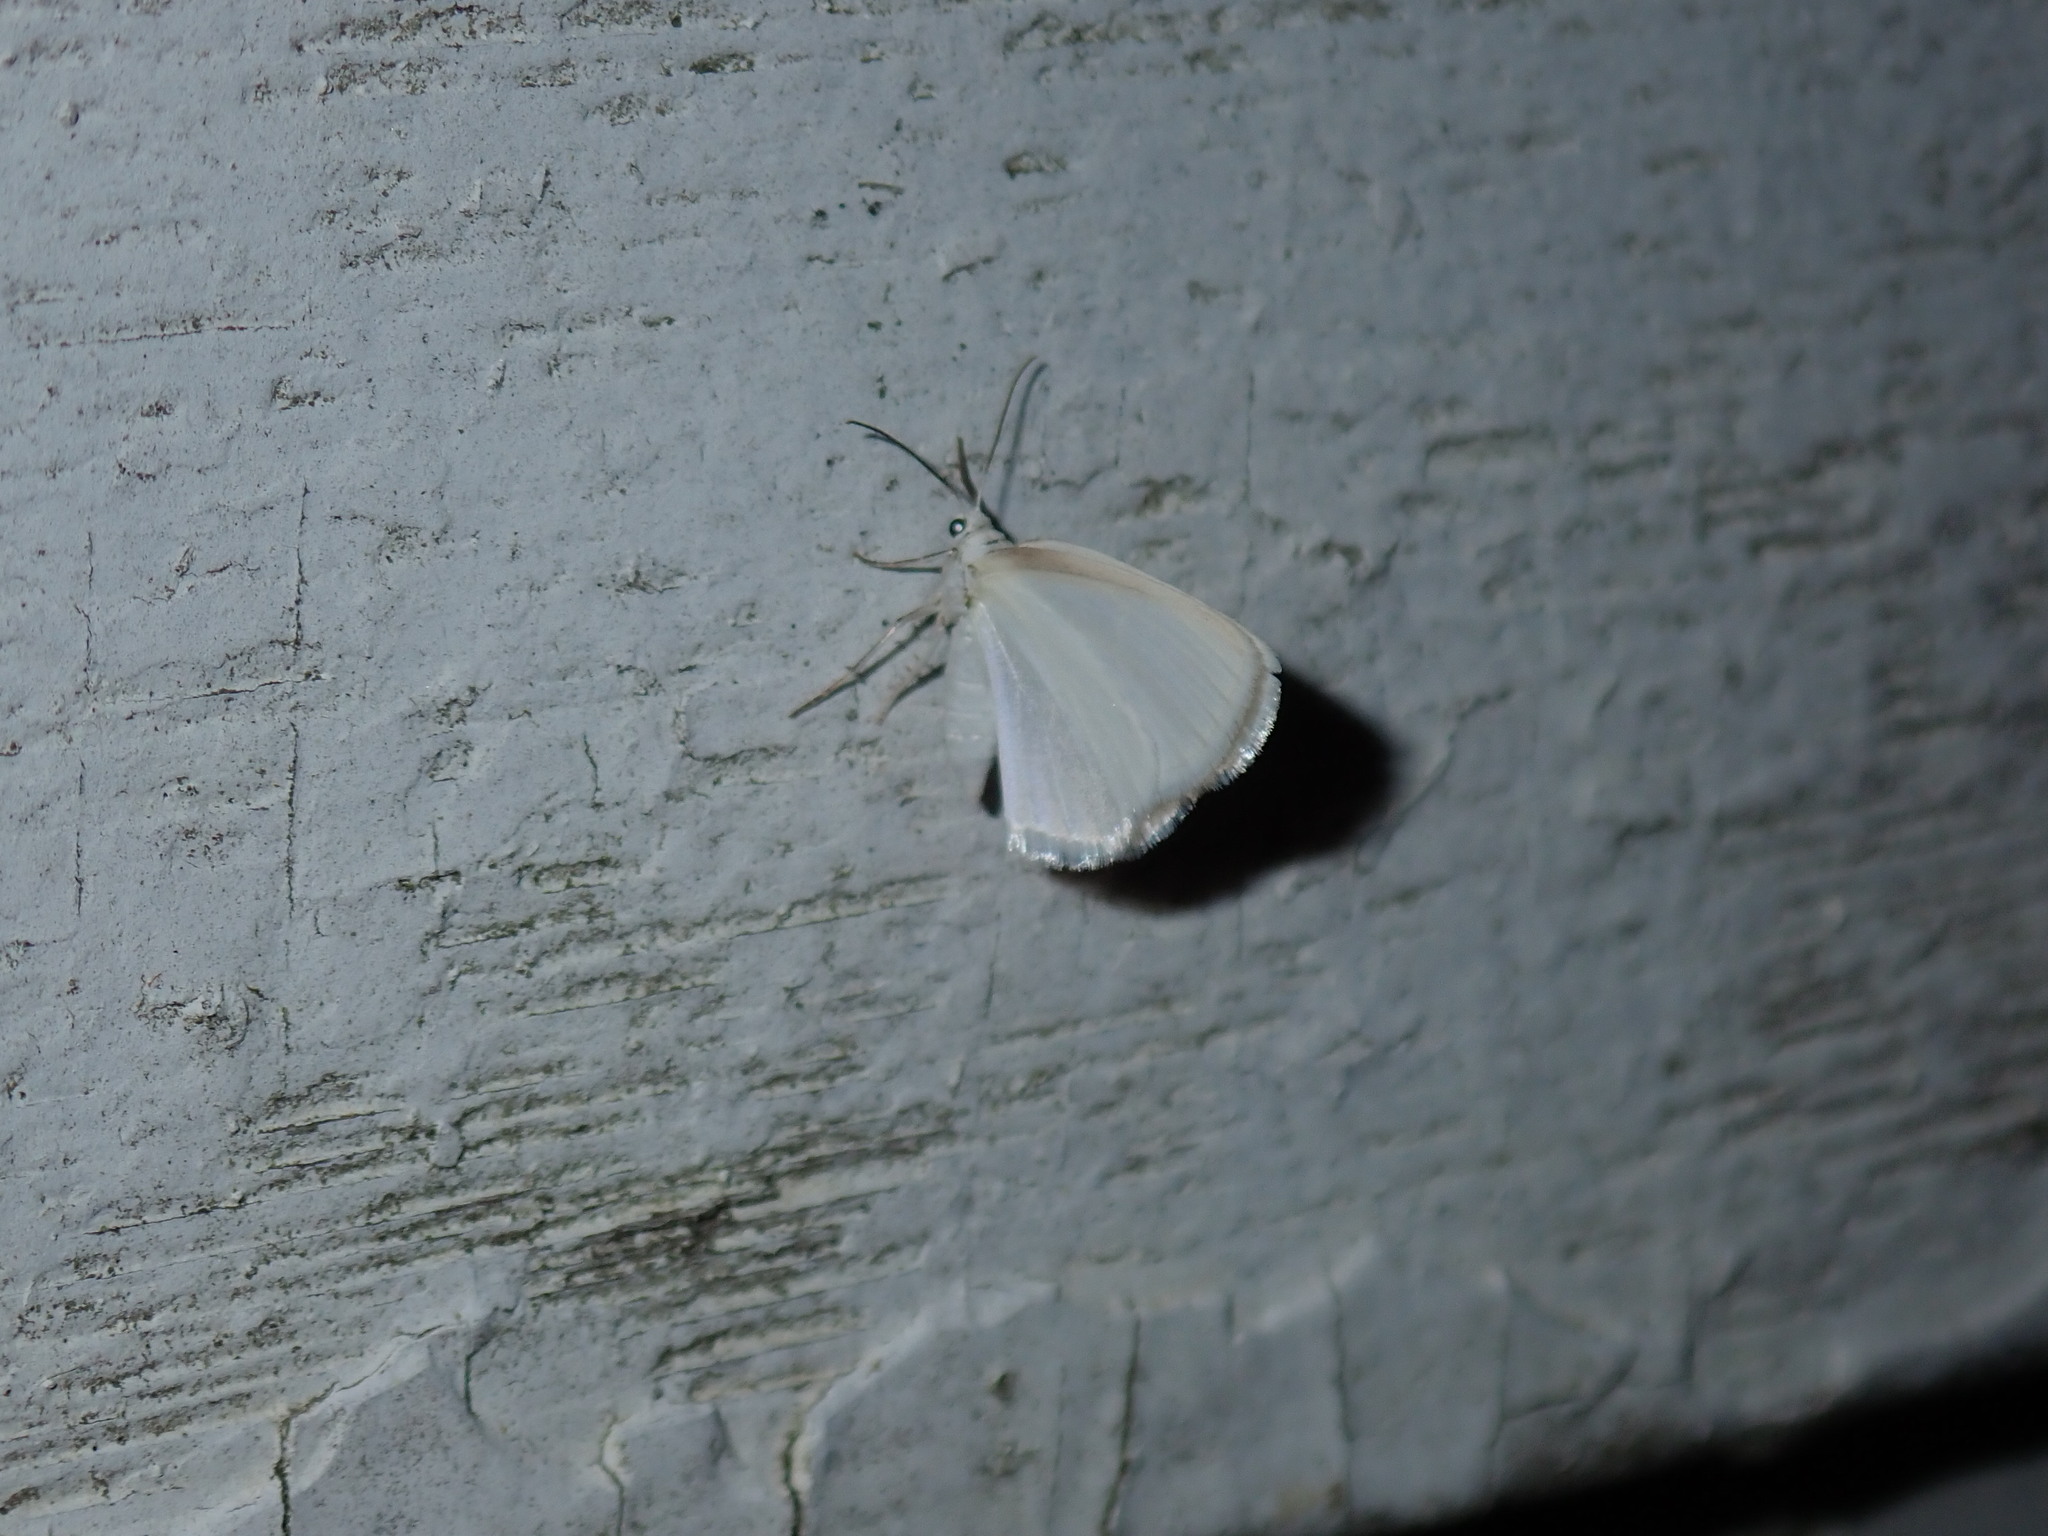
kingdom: Animalia
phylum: Arthropoda
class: Insecta
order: Lepidoptera
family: Geometridae
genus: Lomographa
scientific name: Lomographa vestaliata
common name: White spring moth
